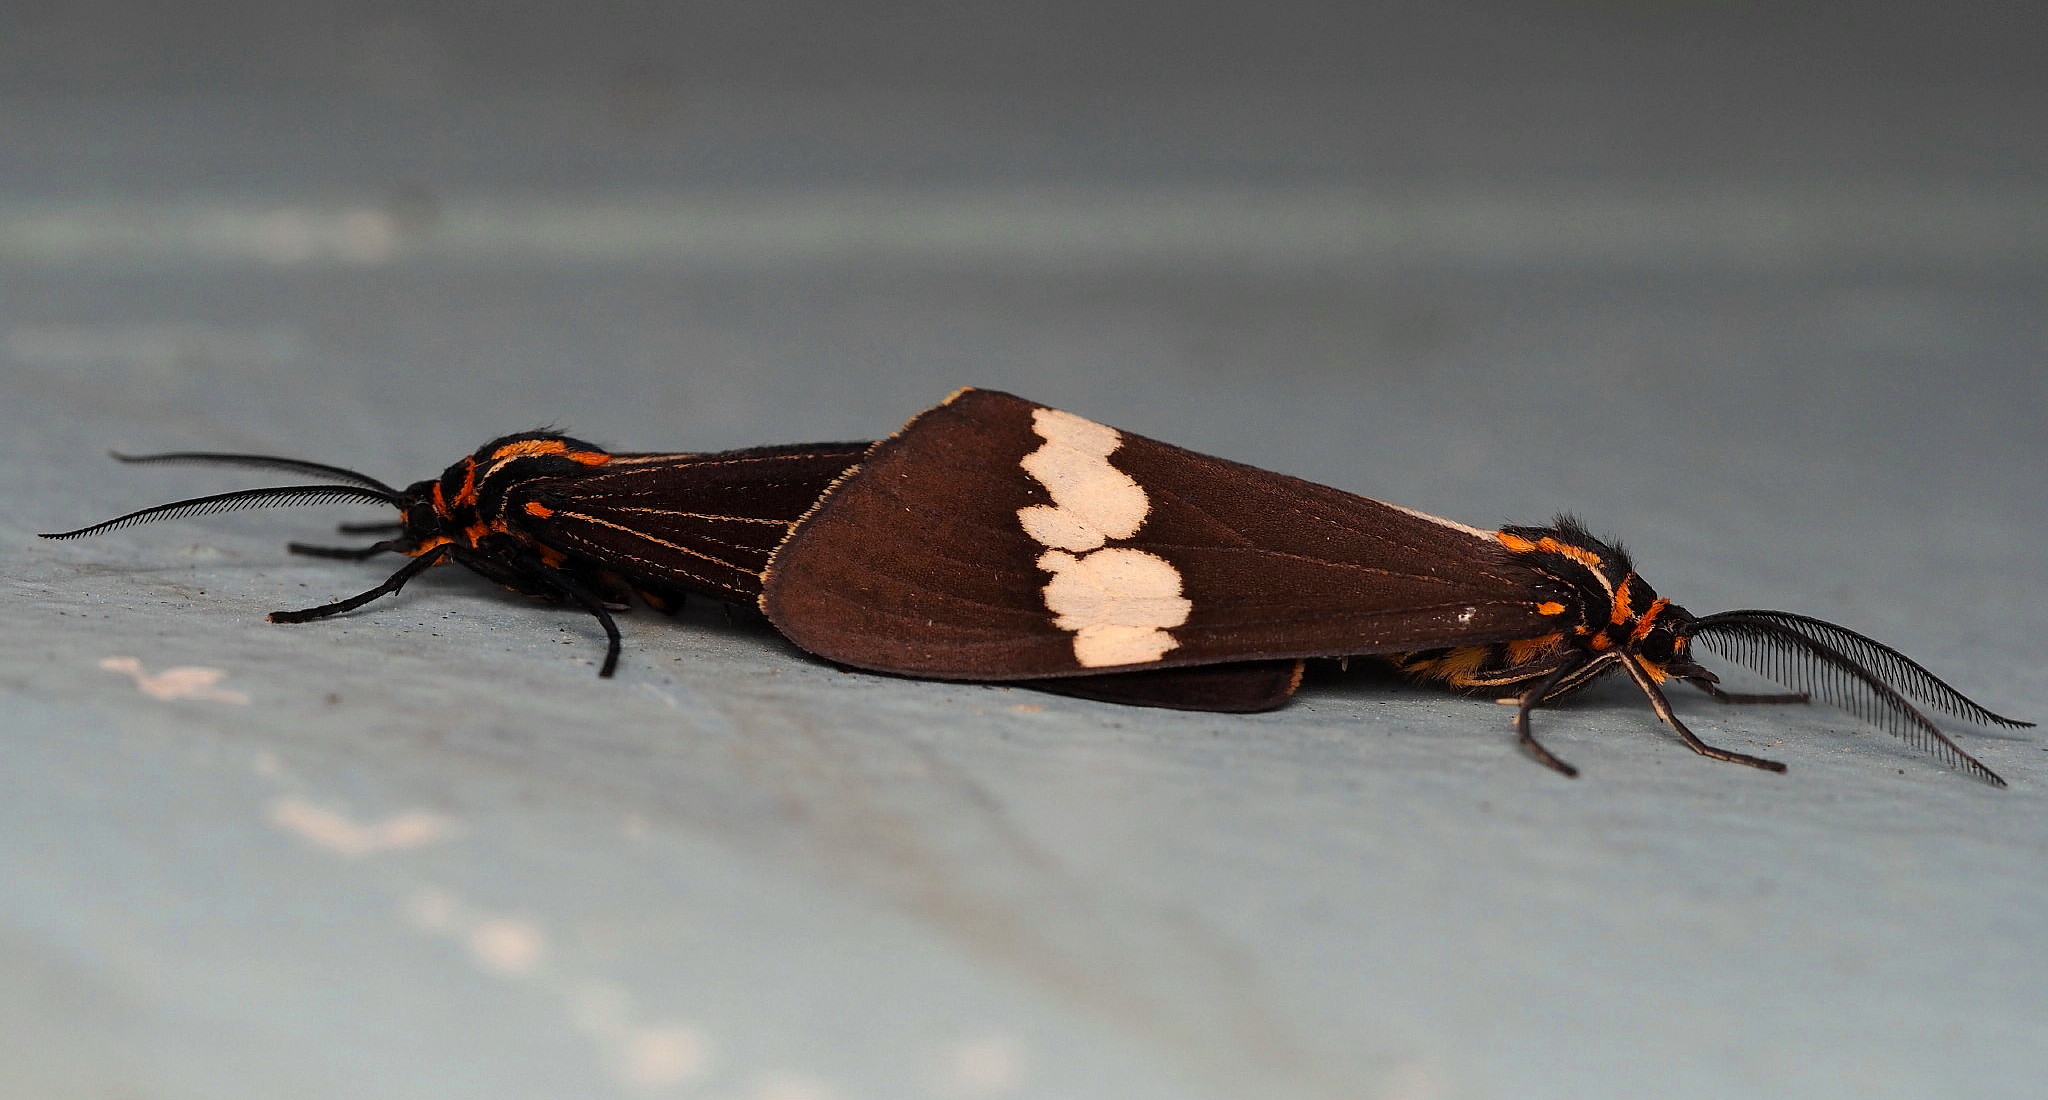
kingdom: Animalia
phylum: Arthropoda
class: Insecta
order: Lepidoptera
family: Erebidae
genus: Nyctemera
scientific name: Nyctemera amicus
